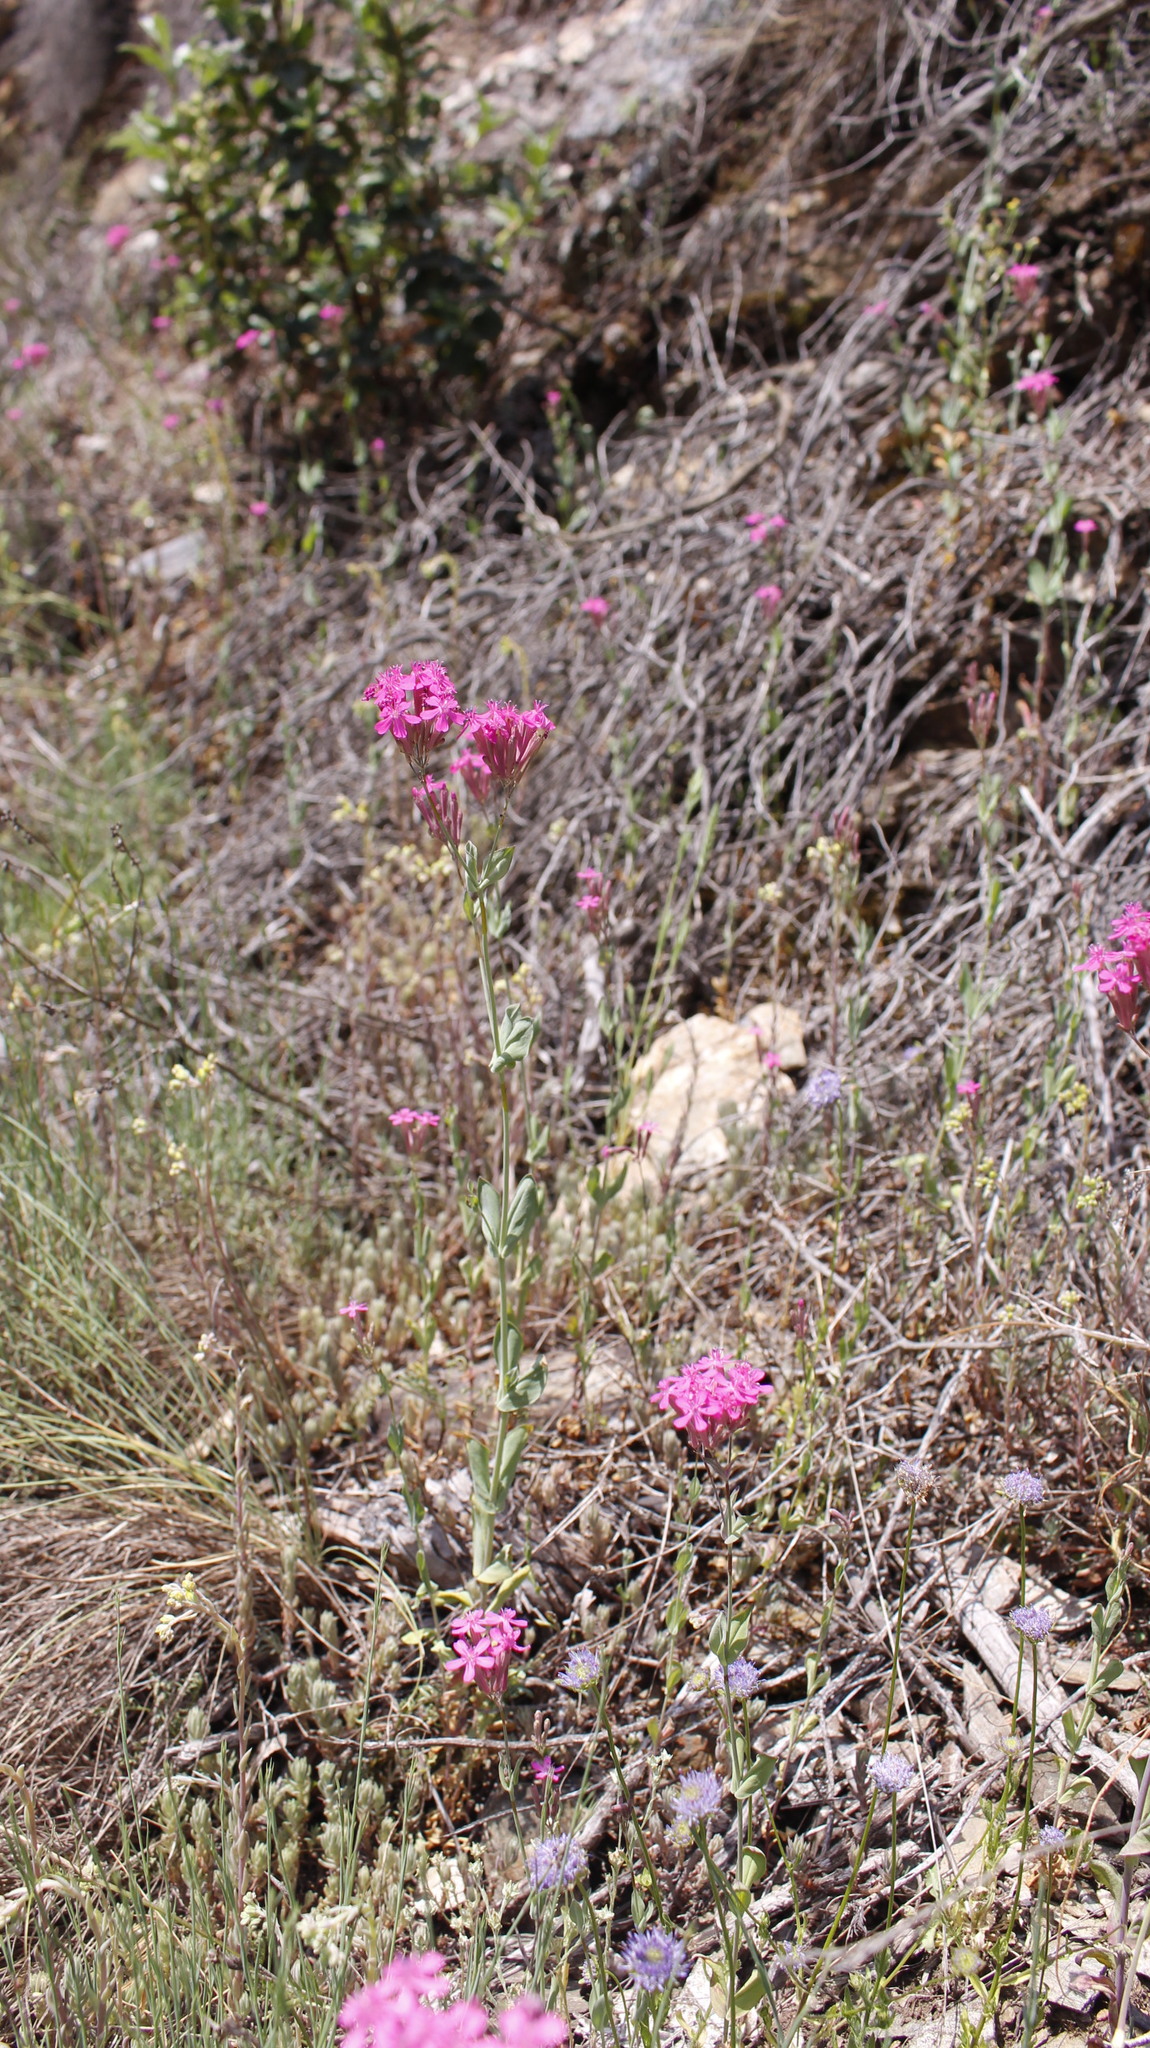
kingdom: Plantae
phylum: Tracheophyta
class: Magnoliopsida
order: Caryophyllales
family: Caryophyllaceae
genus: Atocion
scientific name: Atocion armeria
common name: Sweet william catchfly
